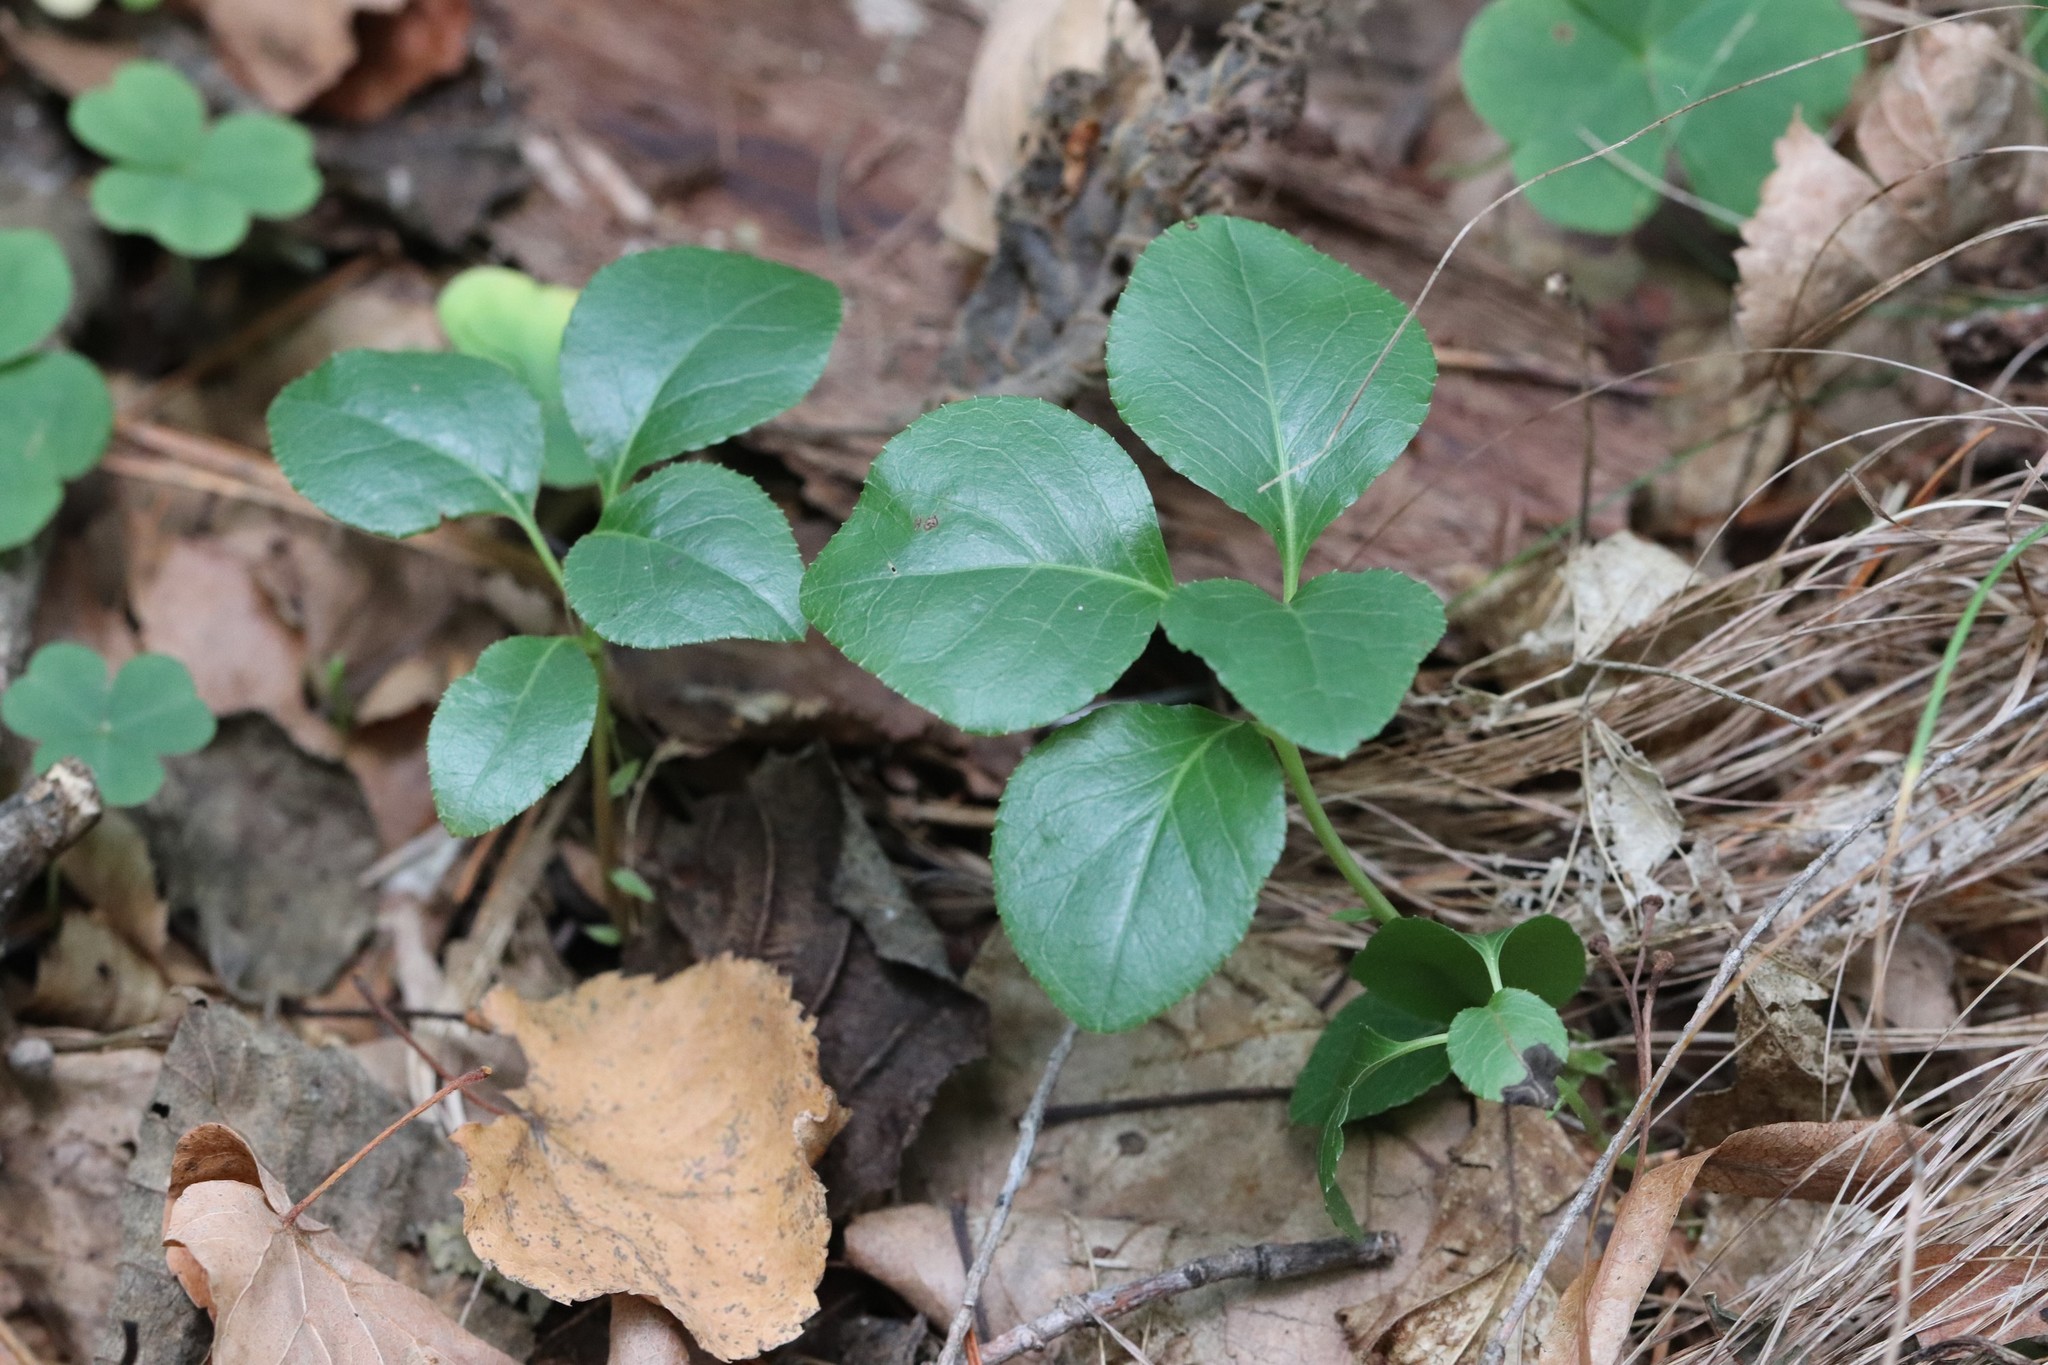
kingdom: Plantae
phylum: Tracheophyta
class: Magnoliopsida
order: Ericales
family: Ericaceae
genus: Orthilia
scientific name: Orthilia secunda
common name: One-sided orthilia
